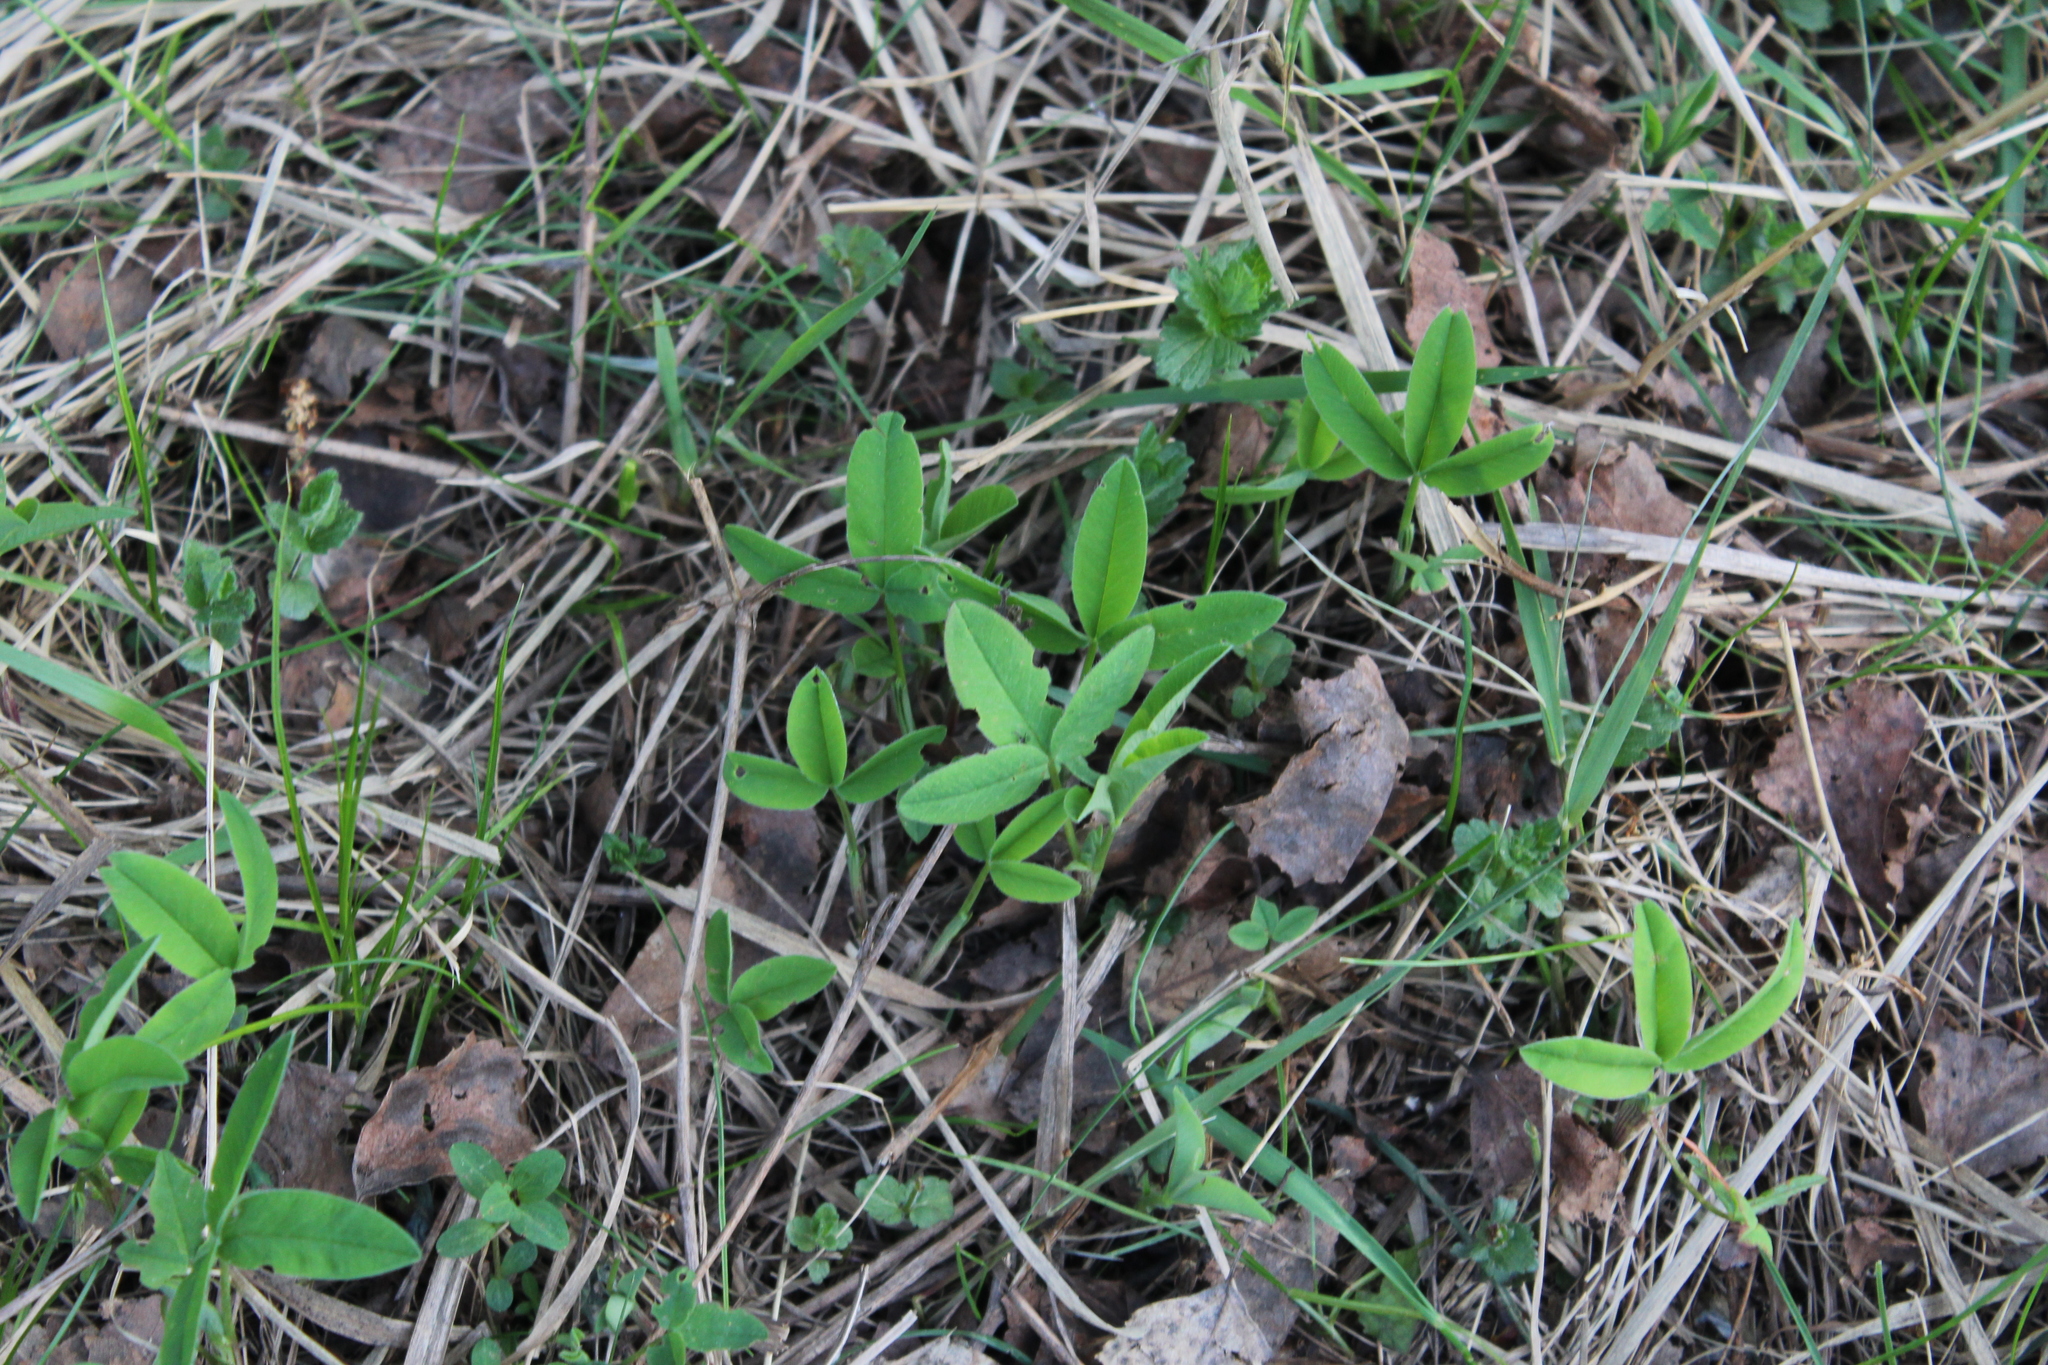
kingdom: Plantae
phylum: Tracheophyta
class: Magnoliopsida
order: Fabales
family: Fabaceae
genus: Trifolium
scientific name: Trifolium medium
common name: Zigzag clover
